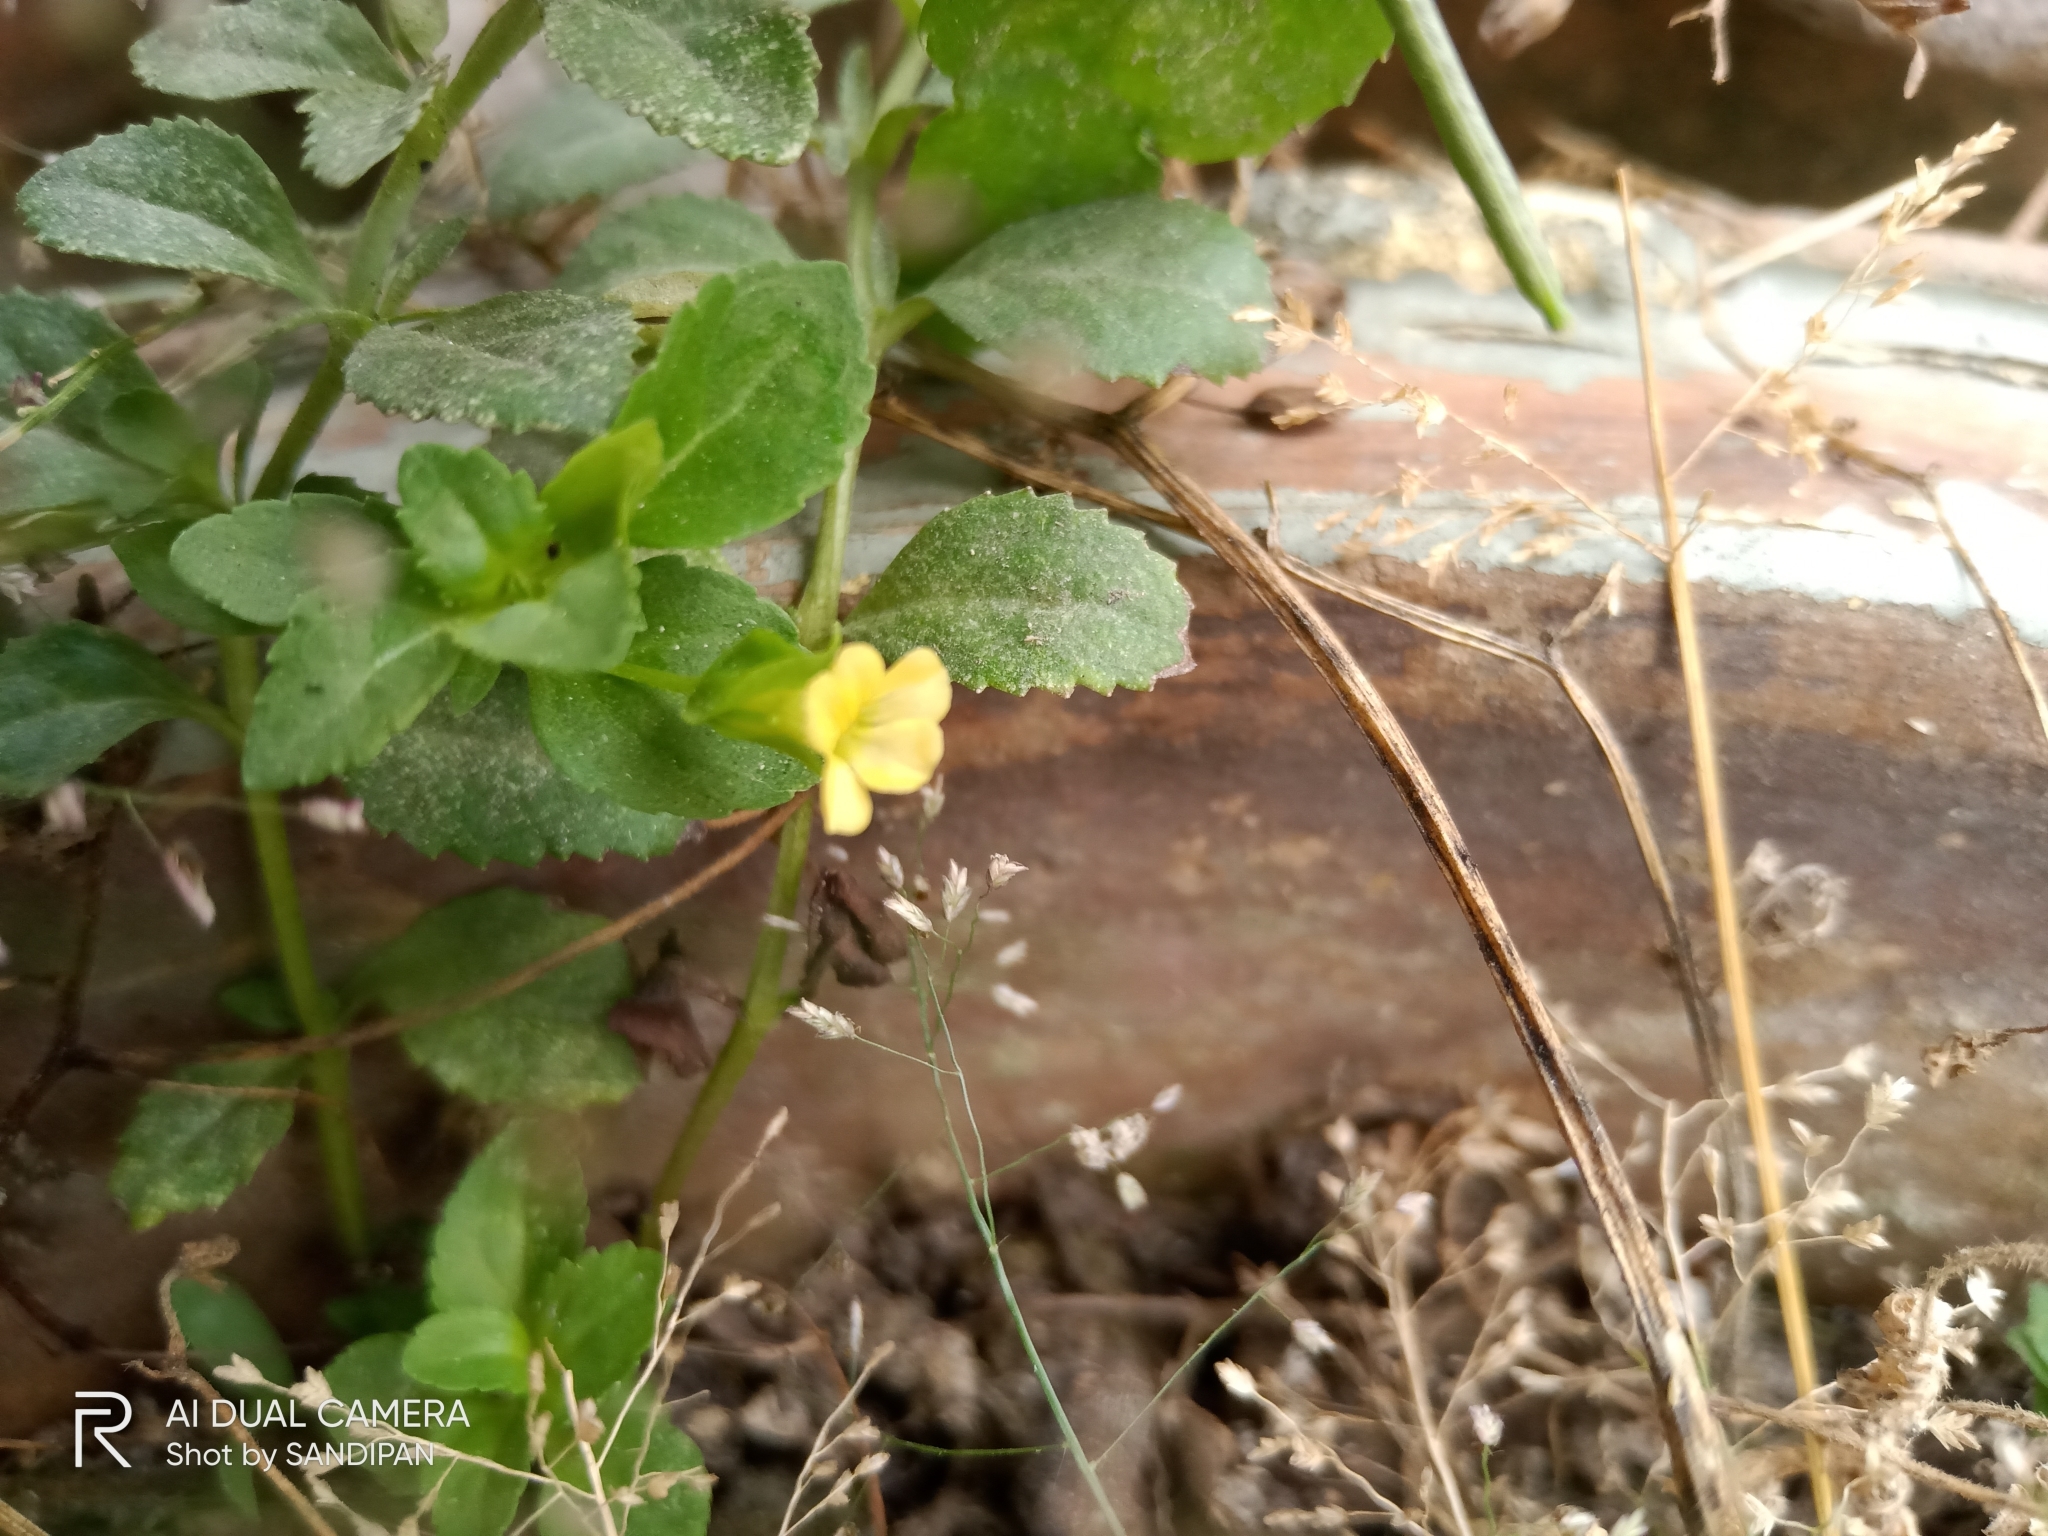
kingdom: Plantae
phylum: Tracheophyta
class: Magnoliopsida
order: Lamiales
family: Plantaginaceae
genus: Mecardonia
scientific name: Mecardonia procumbens
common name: Baby jump-up
